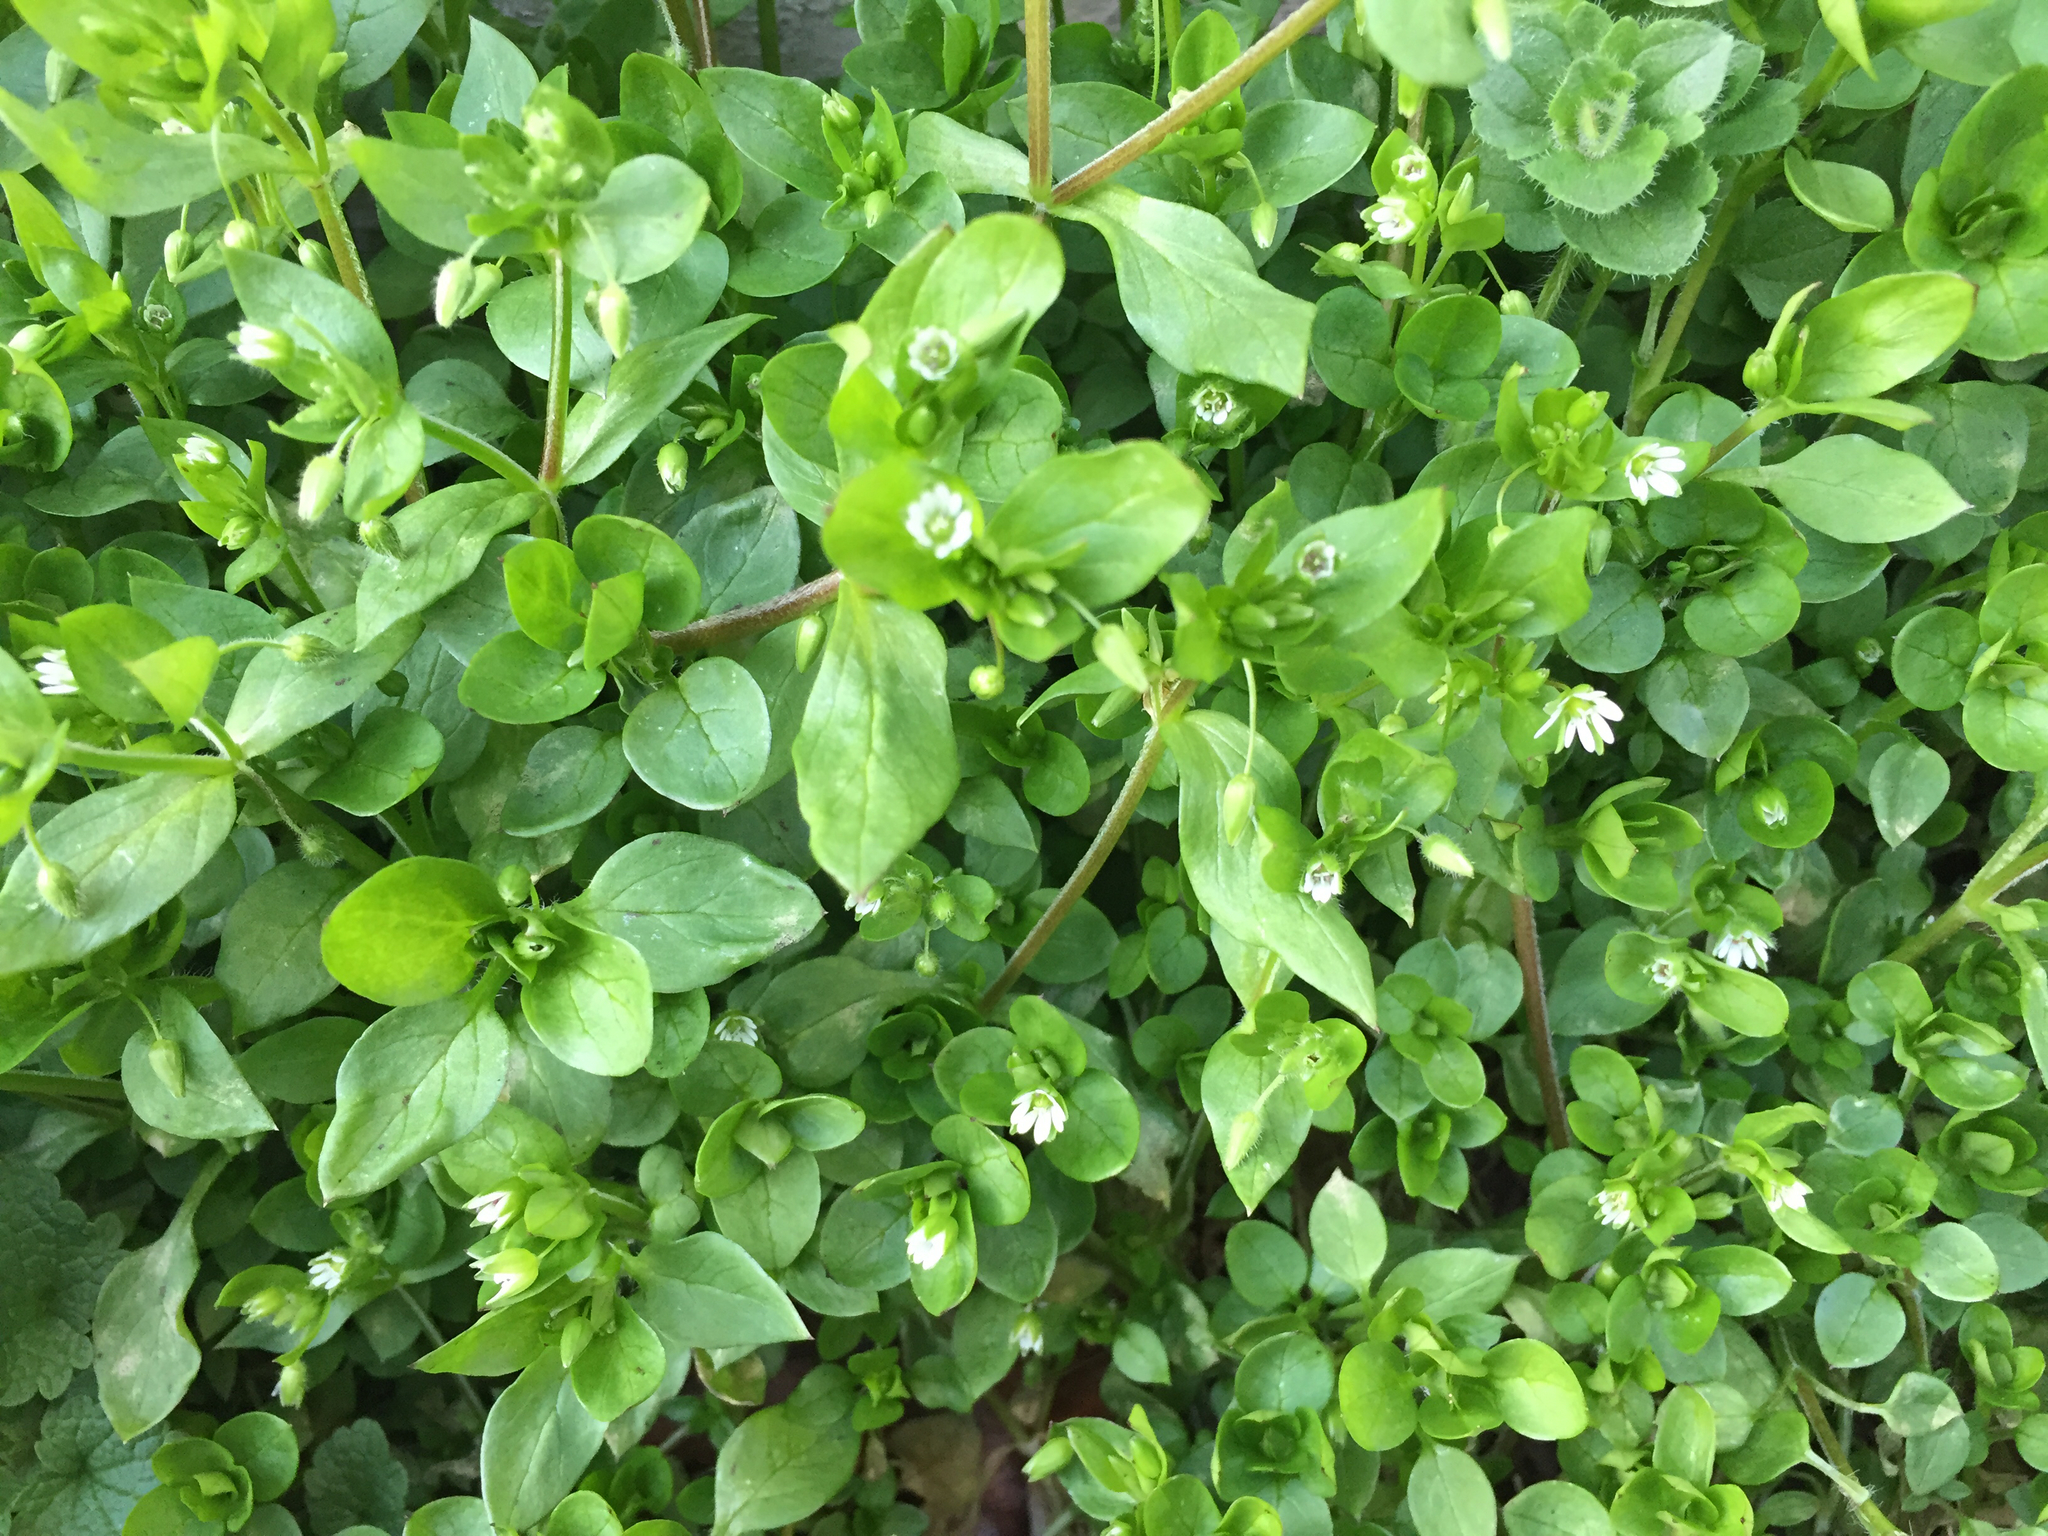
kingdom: Plantae
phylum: Tracheophyta
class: Magnoliopsida
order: Caryophyllales
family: Caryophyllaceae
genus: Stellaria
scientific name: Stellaria media
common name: Common chickweed
